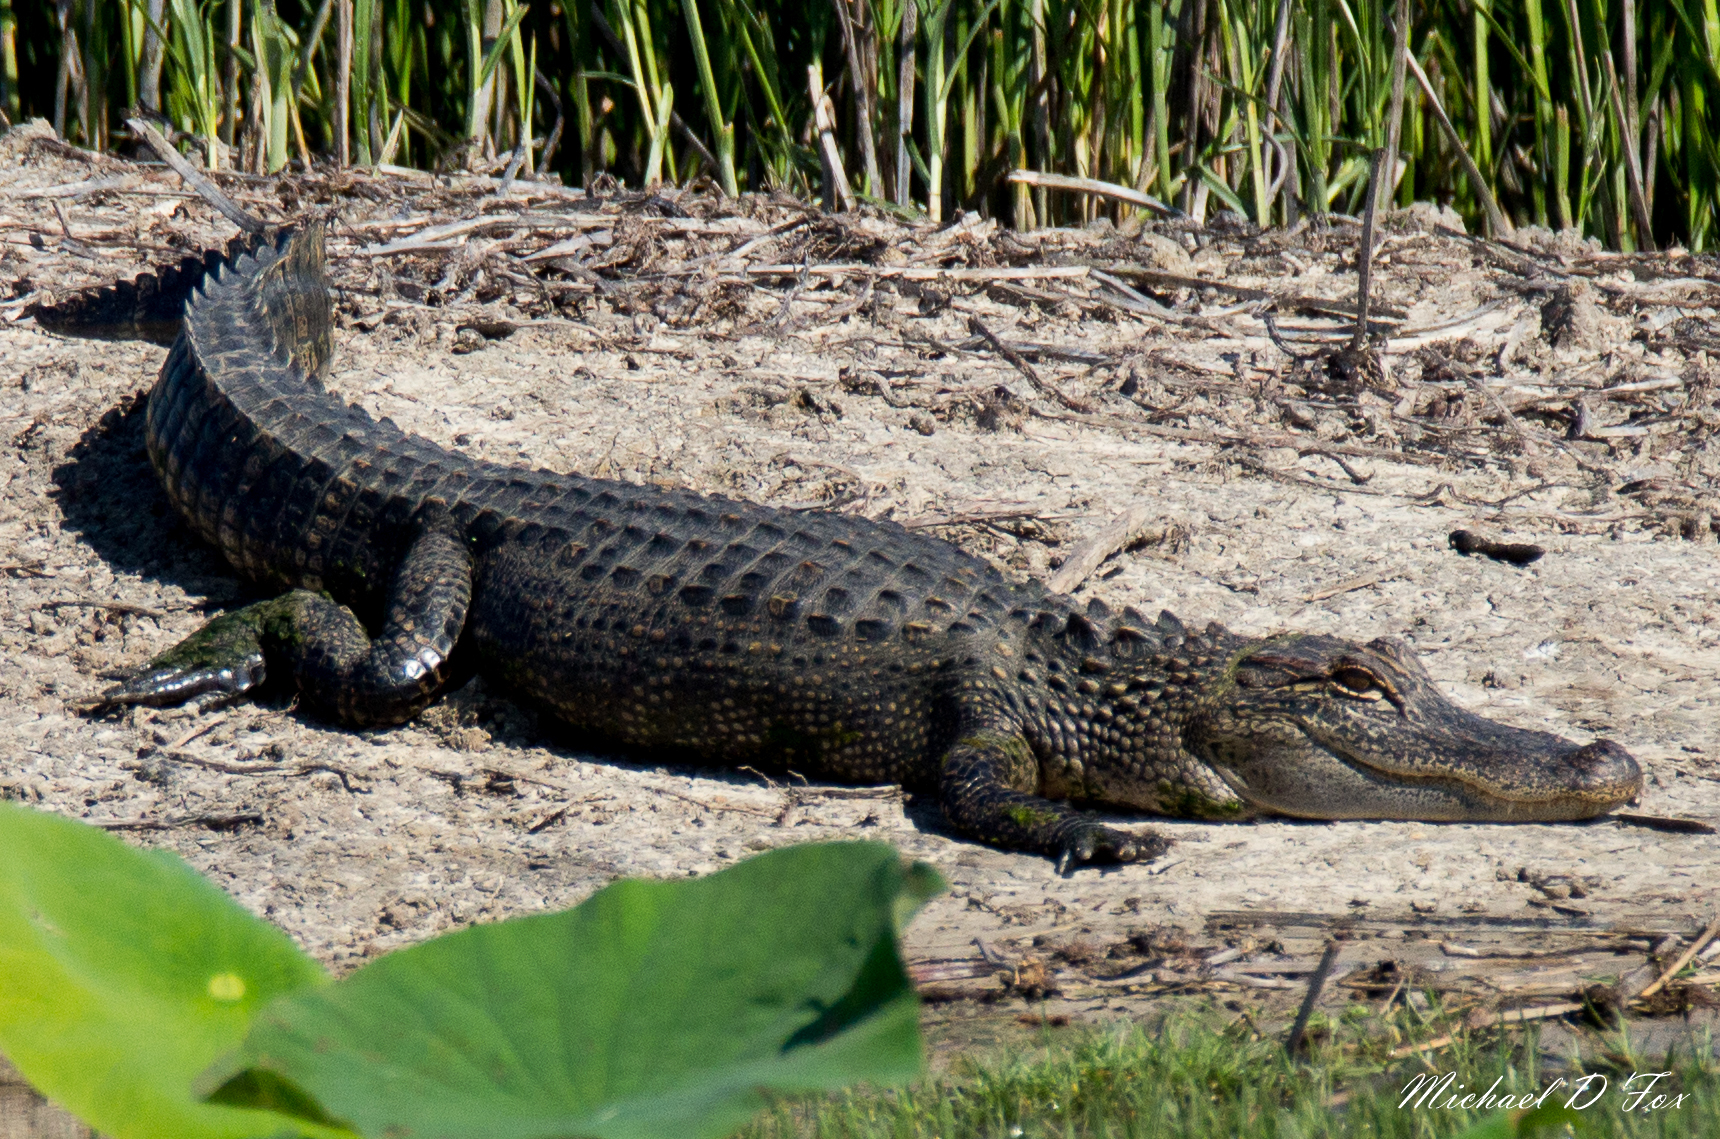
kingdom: Animalia
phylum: Chordata
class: Crocodylia
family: Alligatoridae
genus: Alligator
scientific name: Alligator mississippiensis
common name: American alligator
